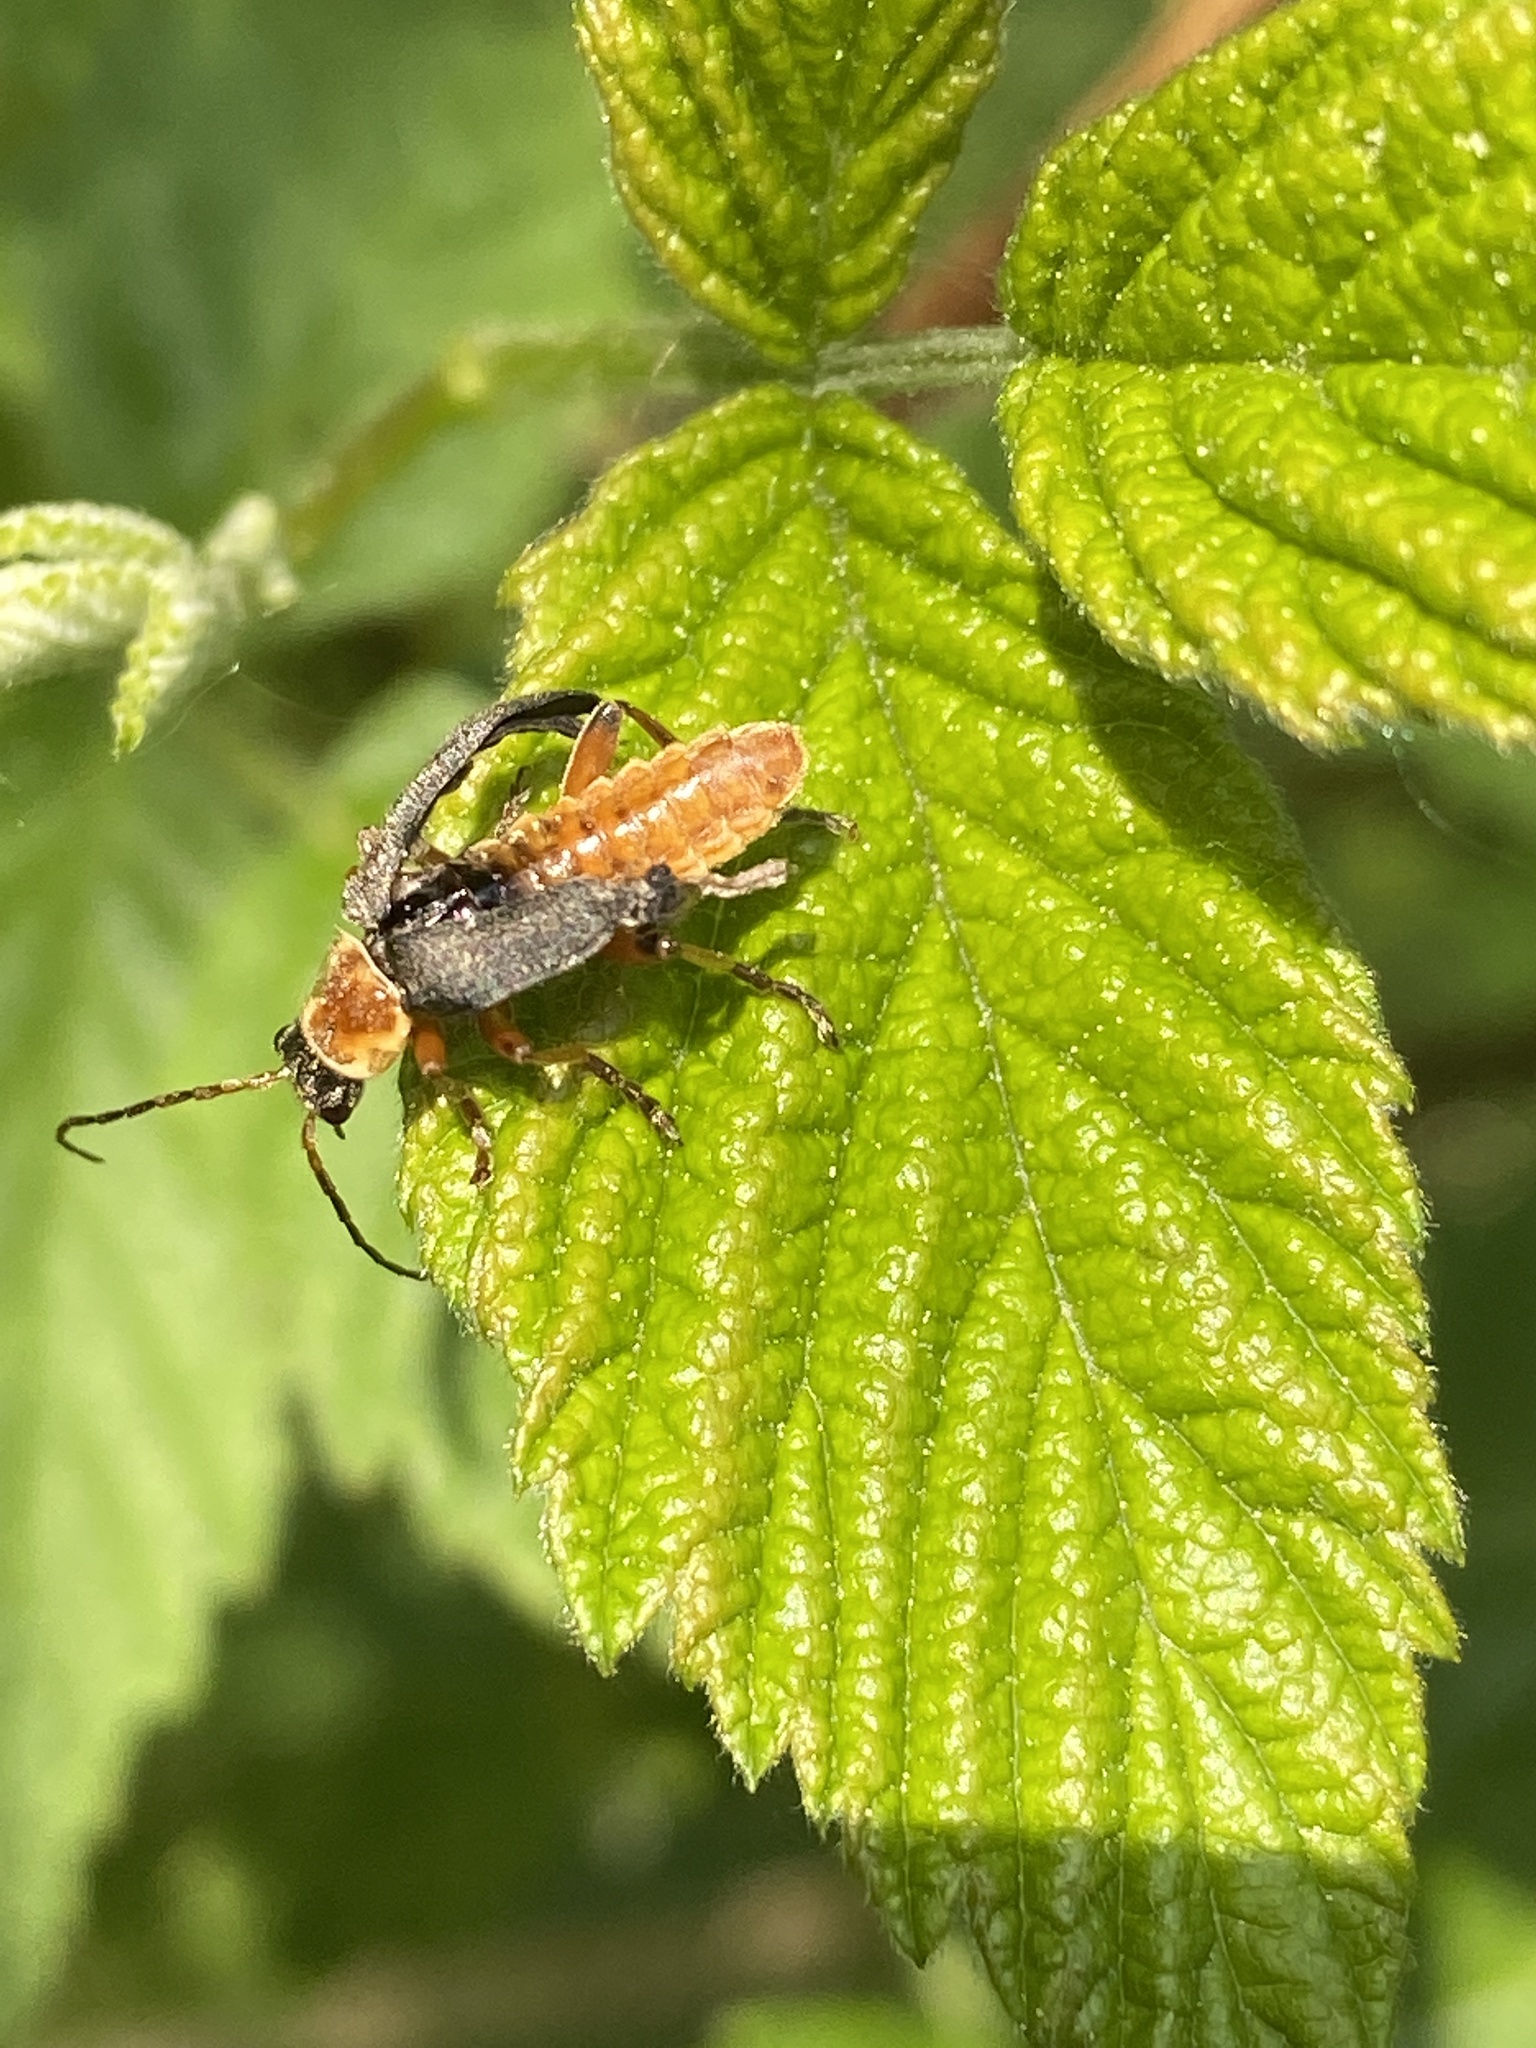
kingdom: Animalia
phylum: Arthropoda
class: Insecta
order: Coleoptera
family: Cantharidae
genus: Cantharis
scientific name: Cantharis nigricans
